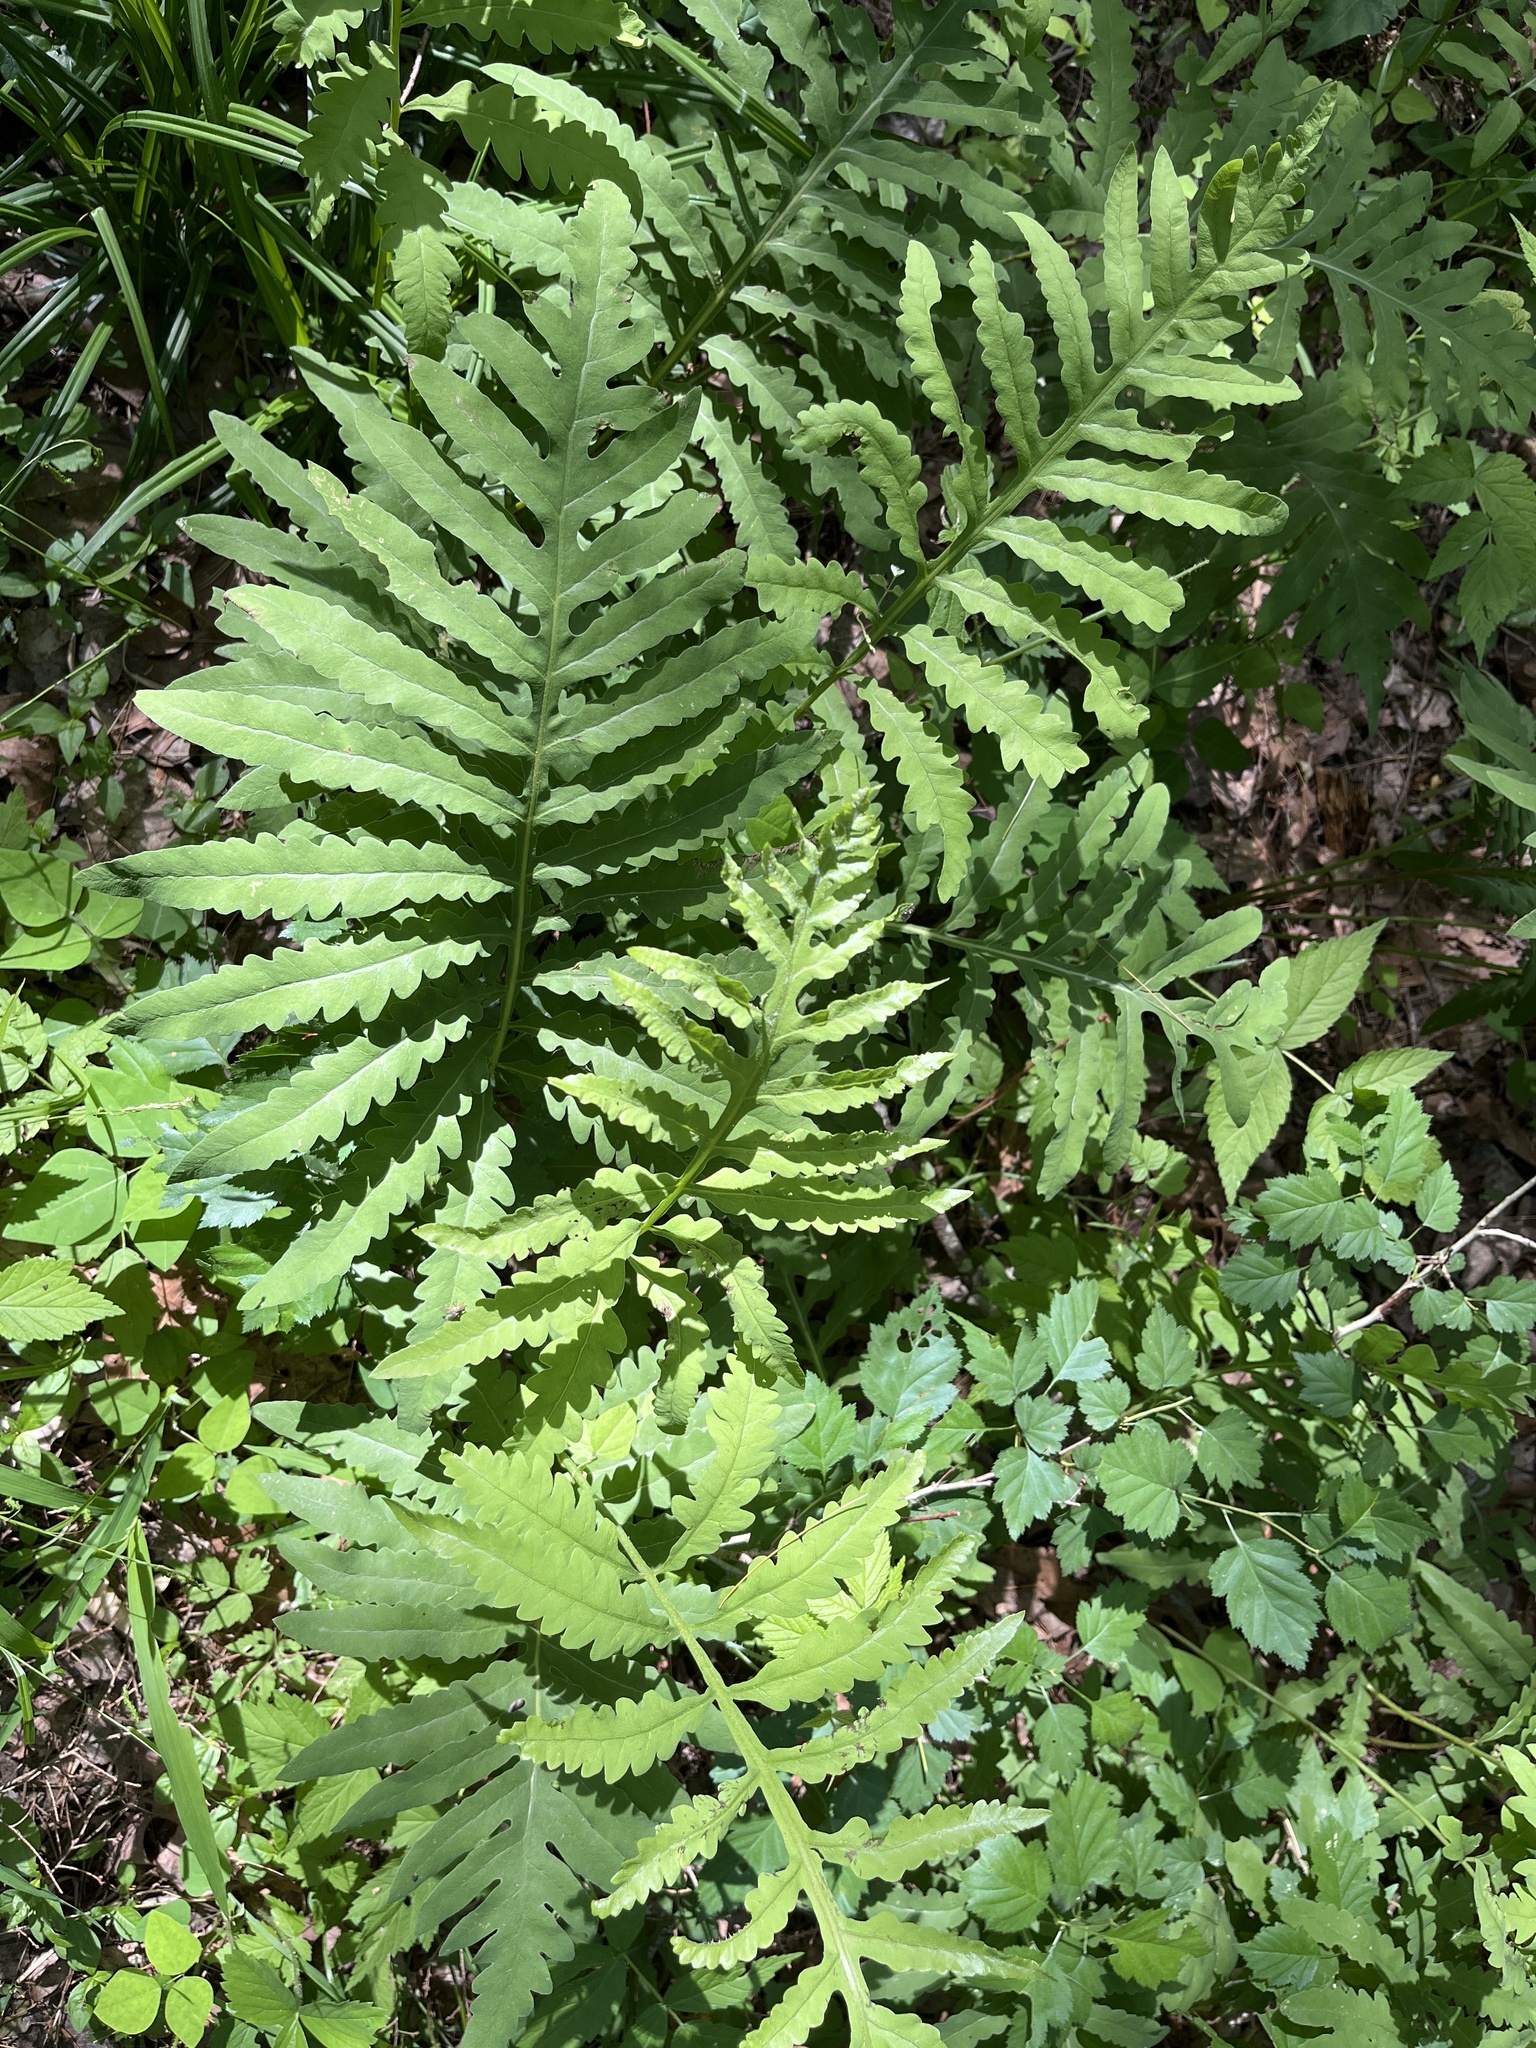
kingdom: Plantae
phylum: Tracheophyta
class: Polypodiopsida
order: Polypodiales
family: Onocleaceae
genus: Onoclea
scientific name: Onoclea sensibilis
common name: Sensitive fern
